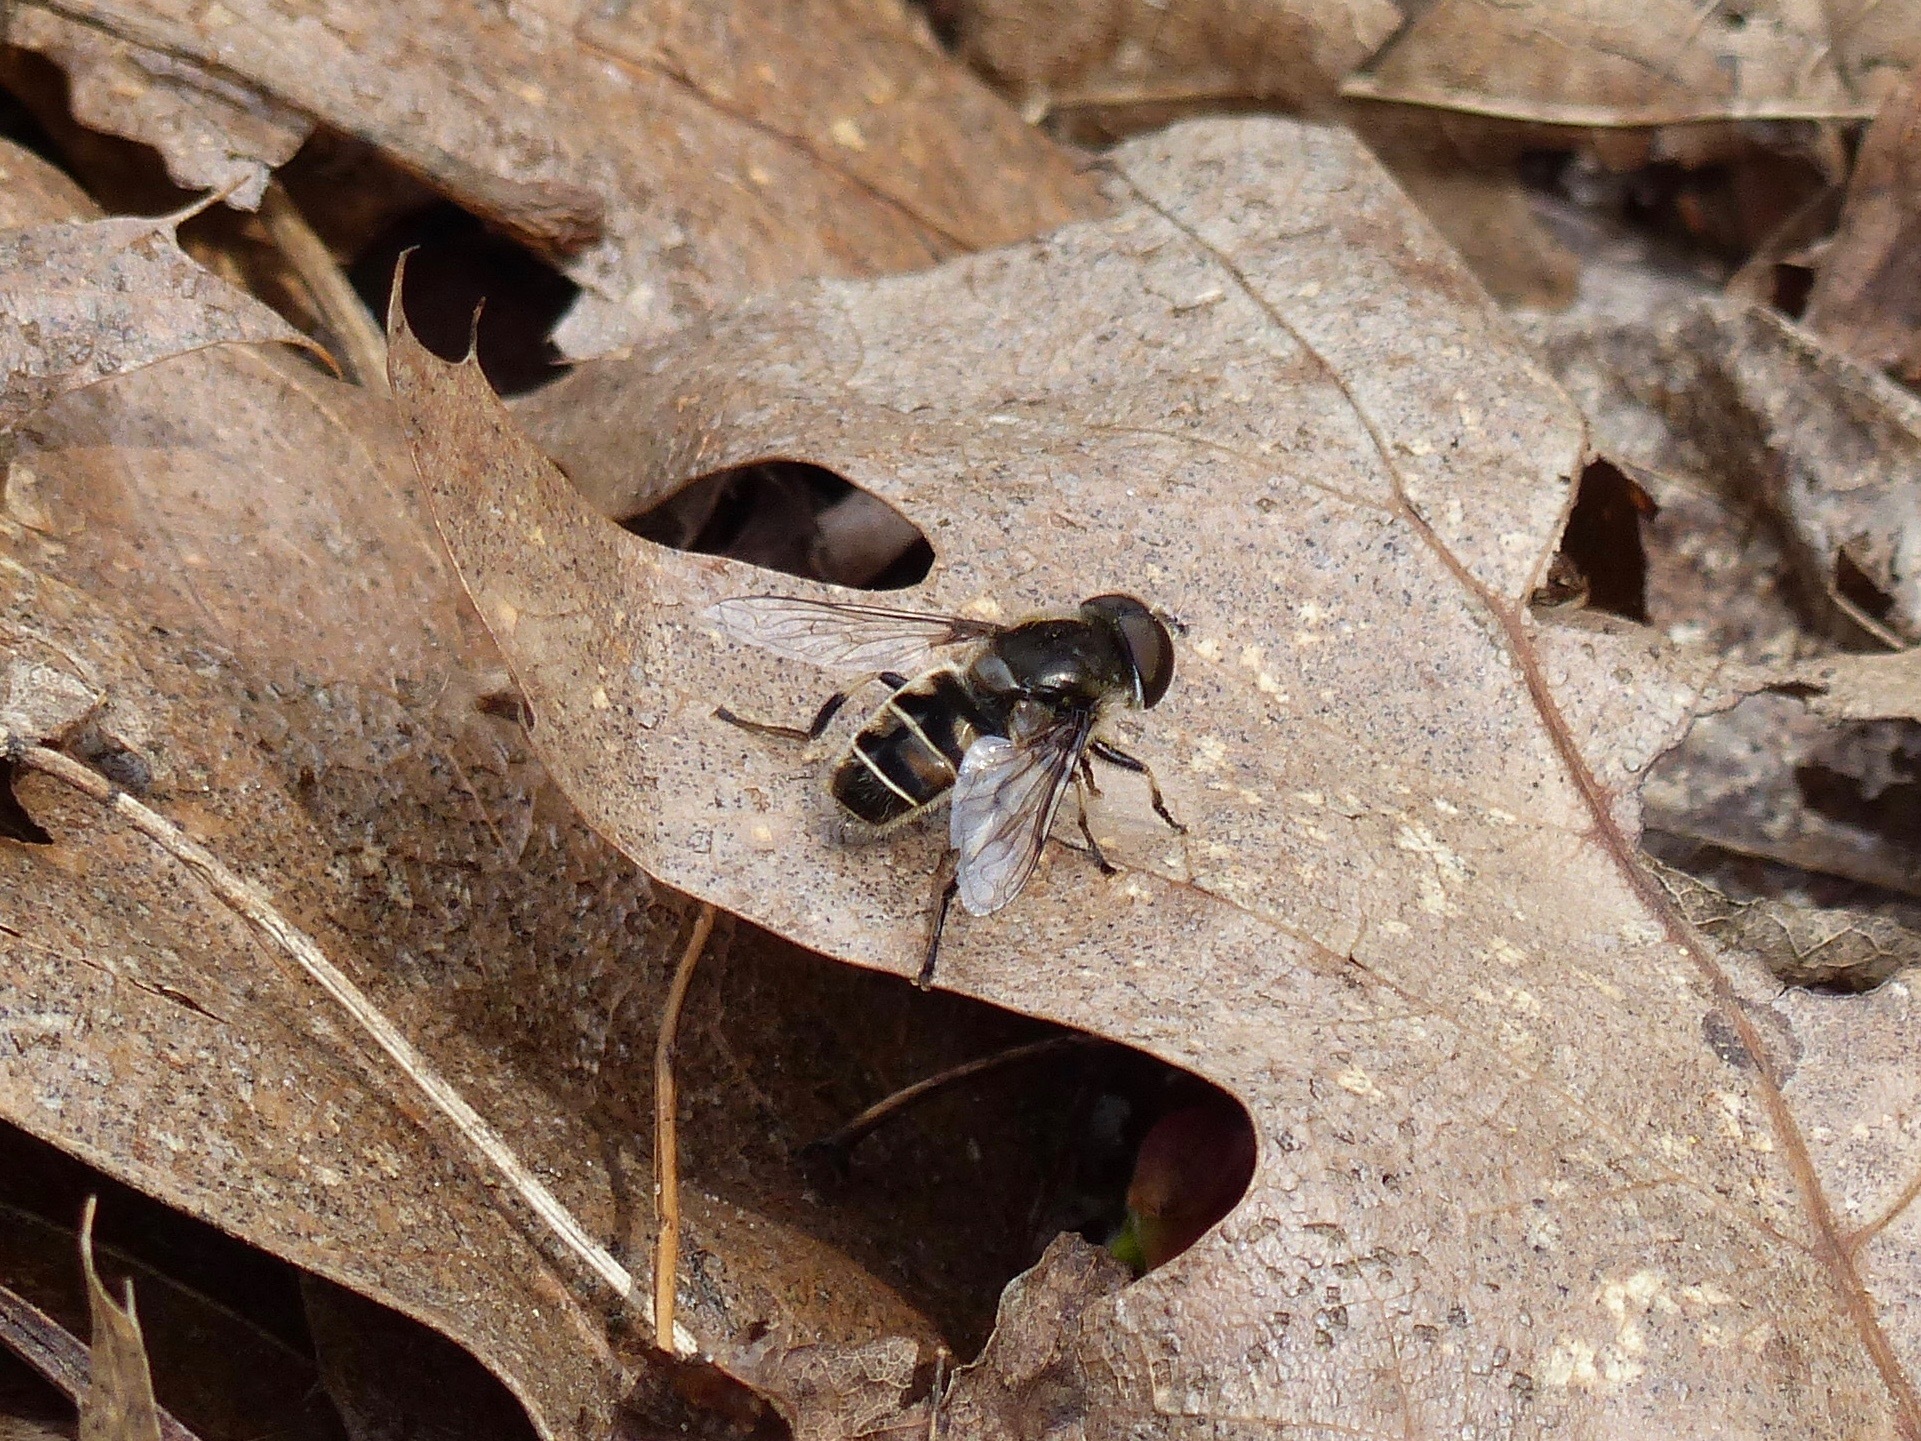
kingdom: Animalia
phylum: Arthropoda
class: Insecta
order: Diptera
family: Syrphidae
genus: Eristalis
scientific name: Eristalis dimidiata
